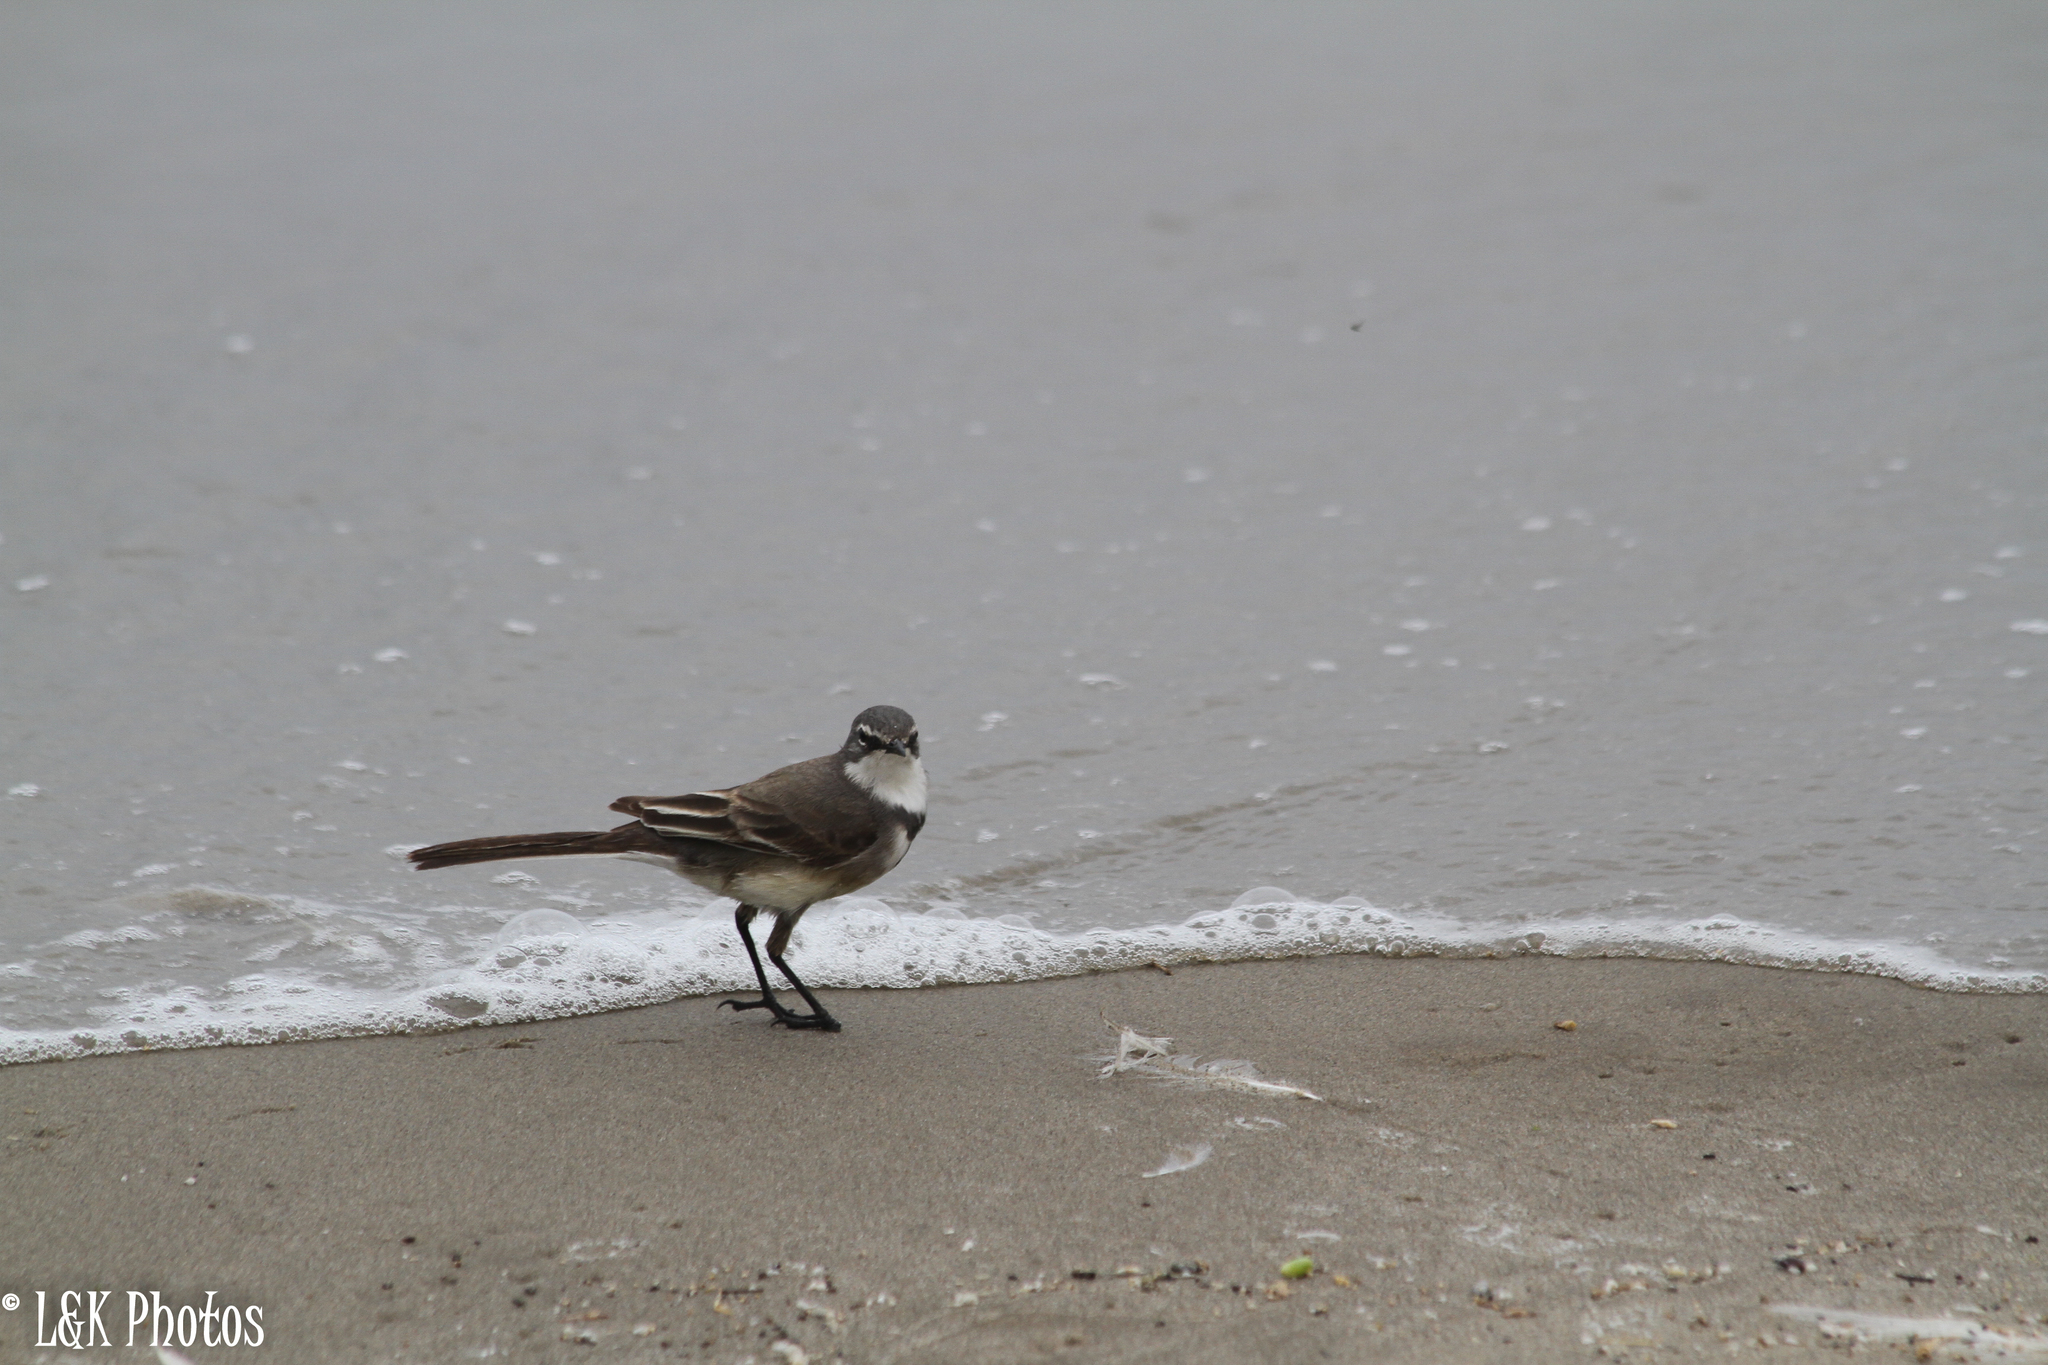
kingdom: Animalia
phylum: Chordata
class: Aves
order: Passeriformes
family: Motacillidae
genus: Motacilla
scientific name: Motacilla capensis
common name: Cape wagtail
